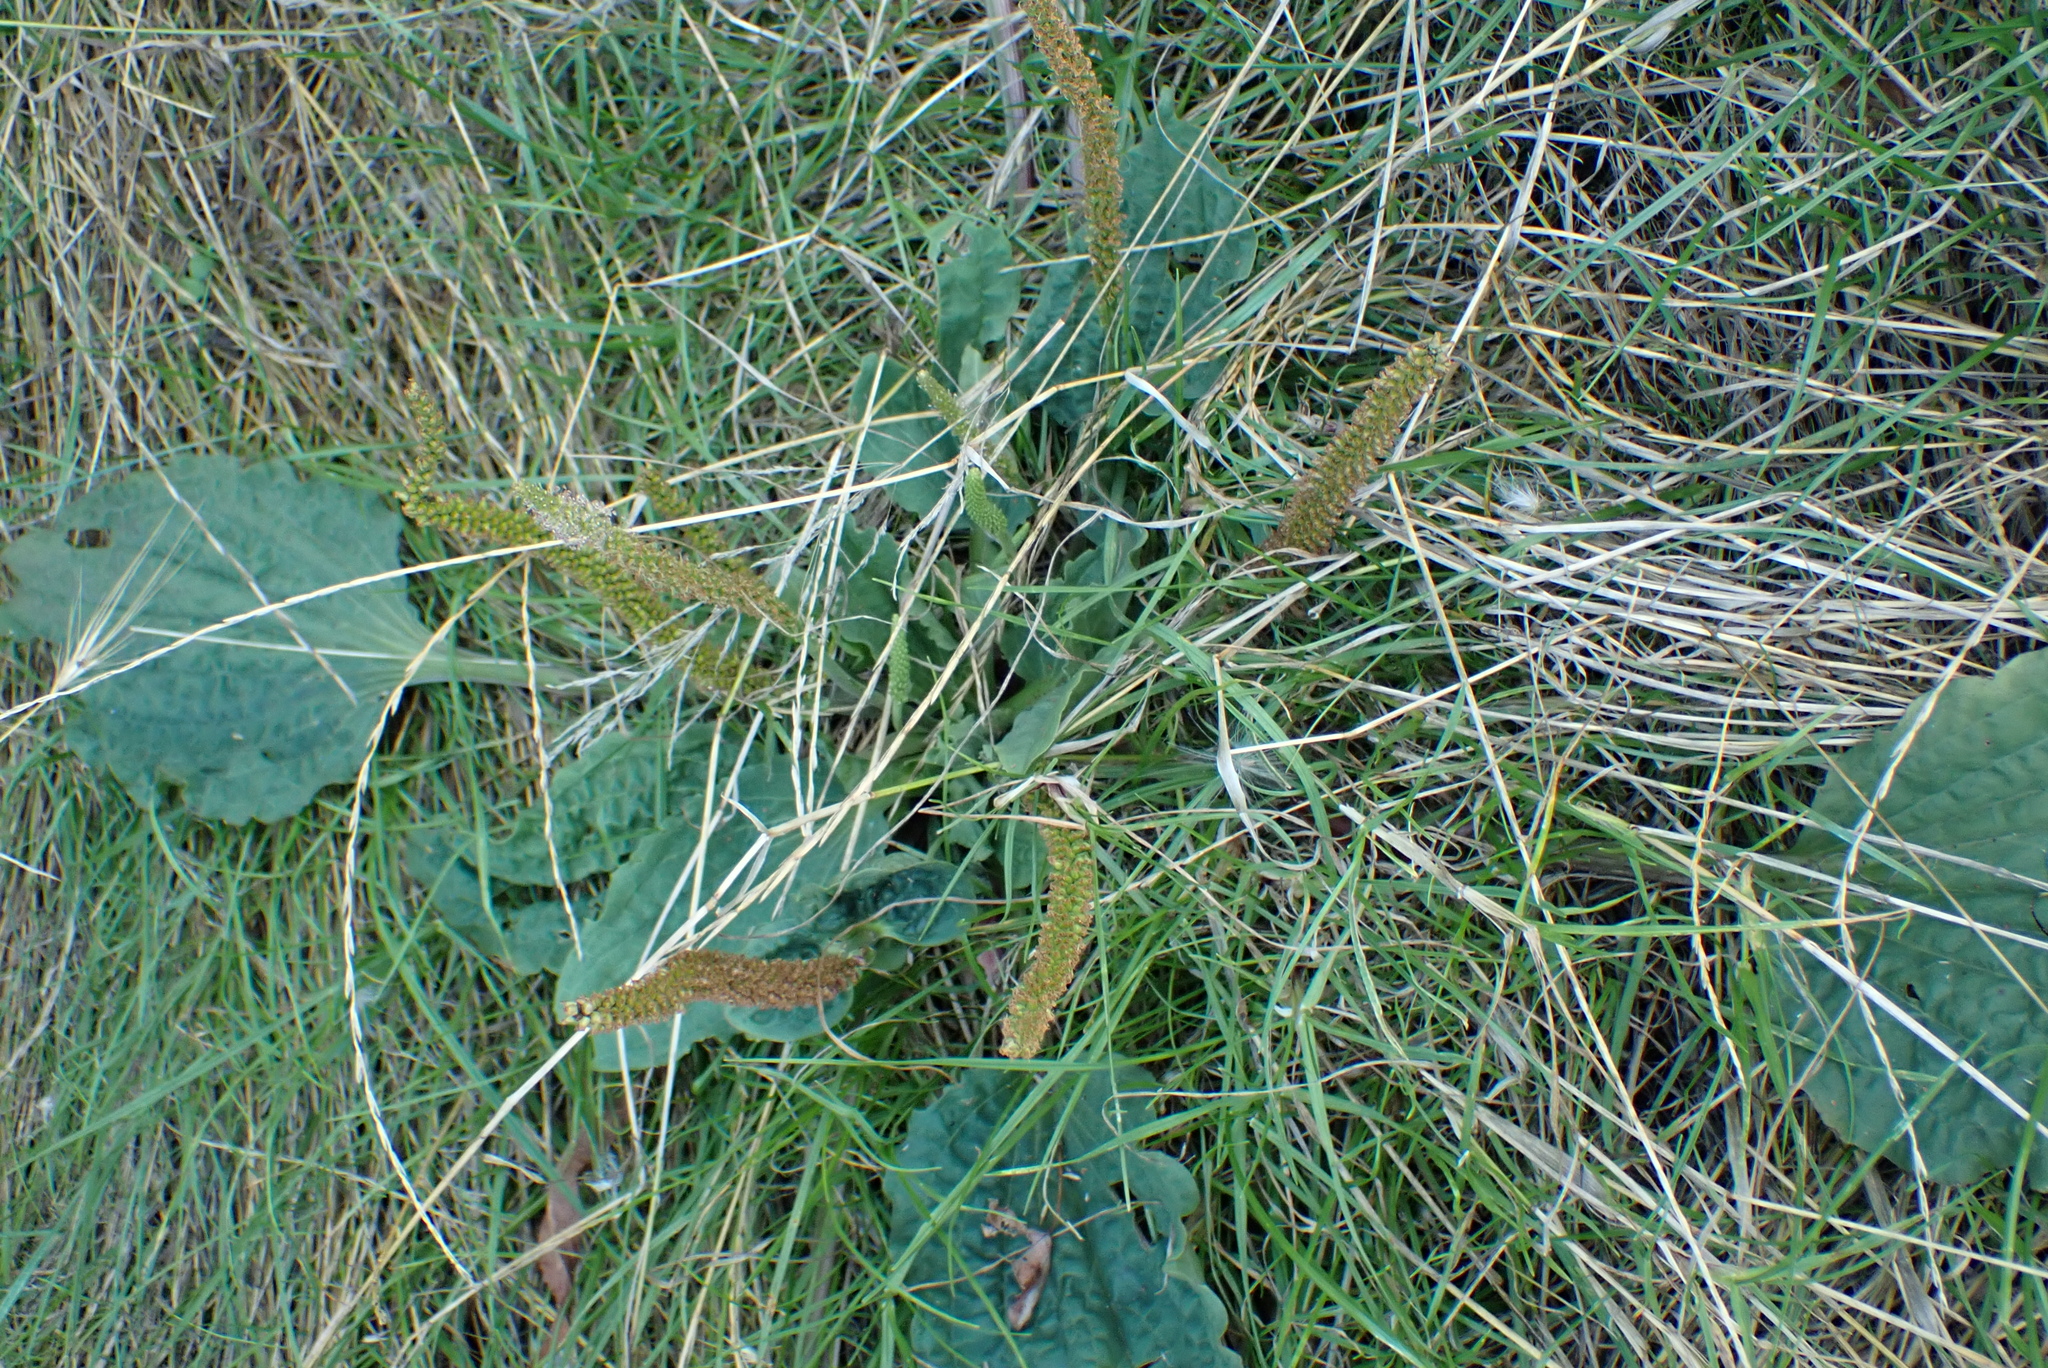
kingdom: Plantae
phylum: Tracheophyta
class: Magnoliopsida
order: Lamiales
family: Plantaginaceae
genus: Plantago
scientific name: Plantago major
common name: Common plantain
